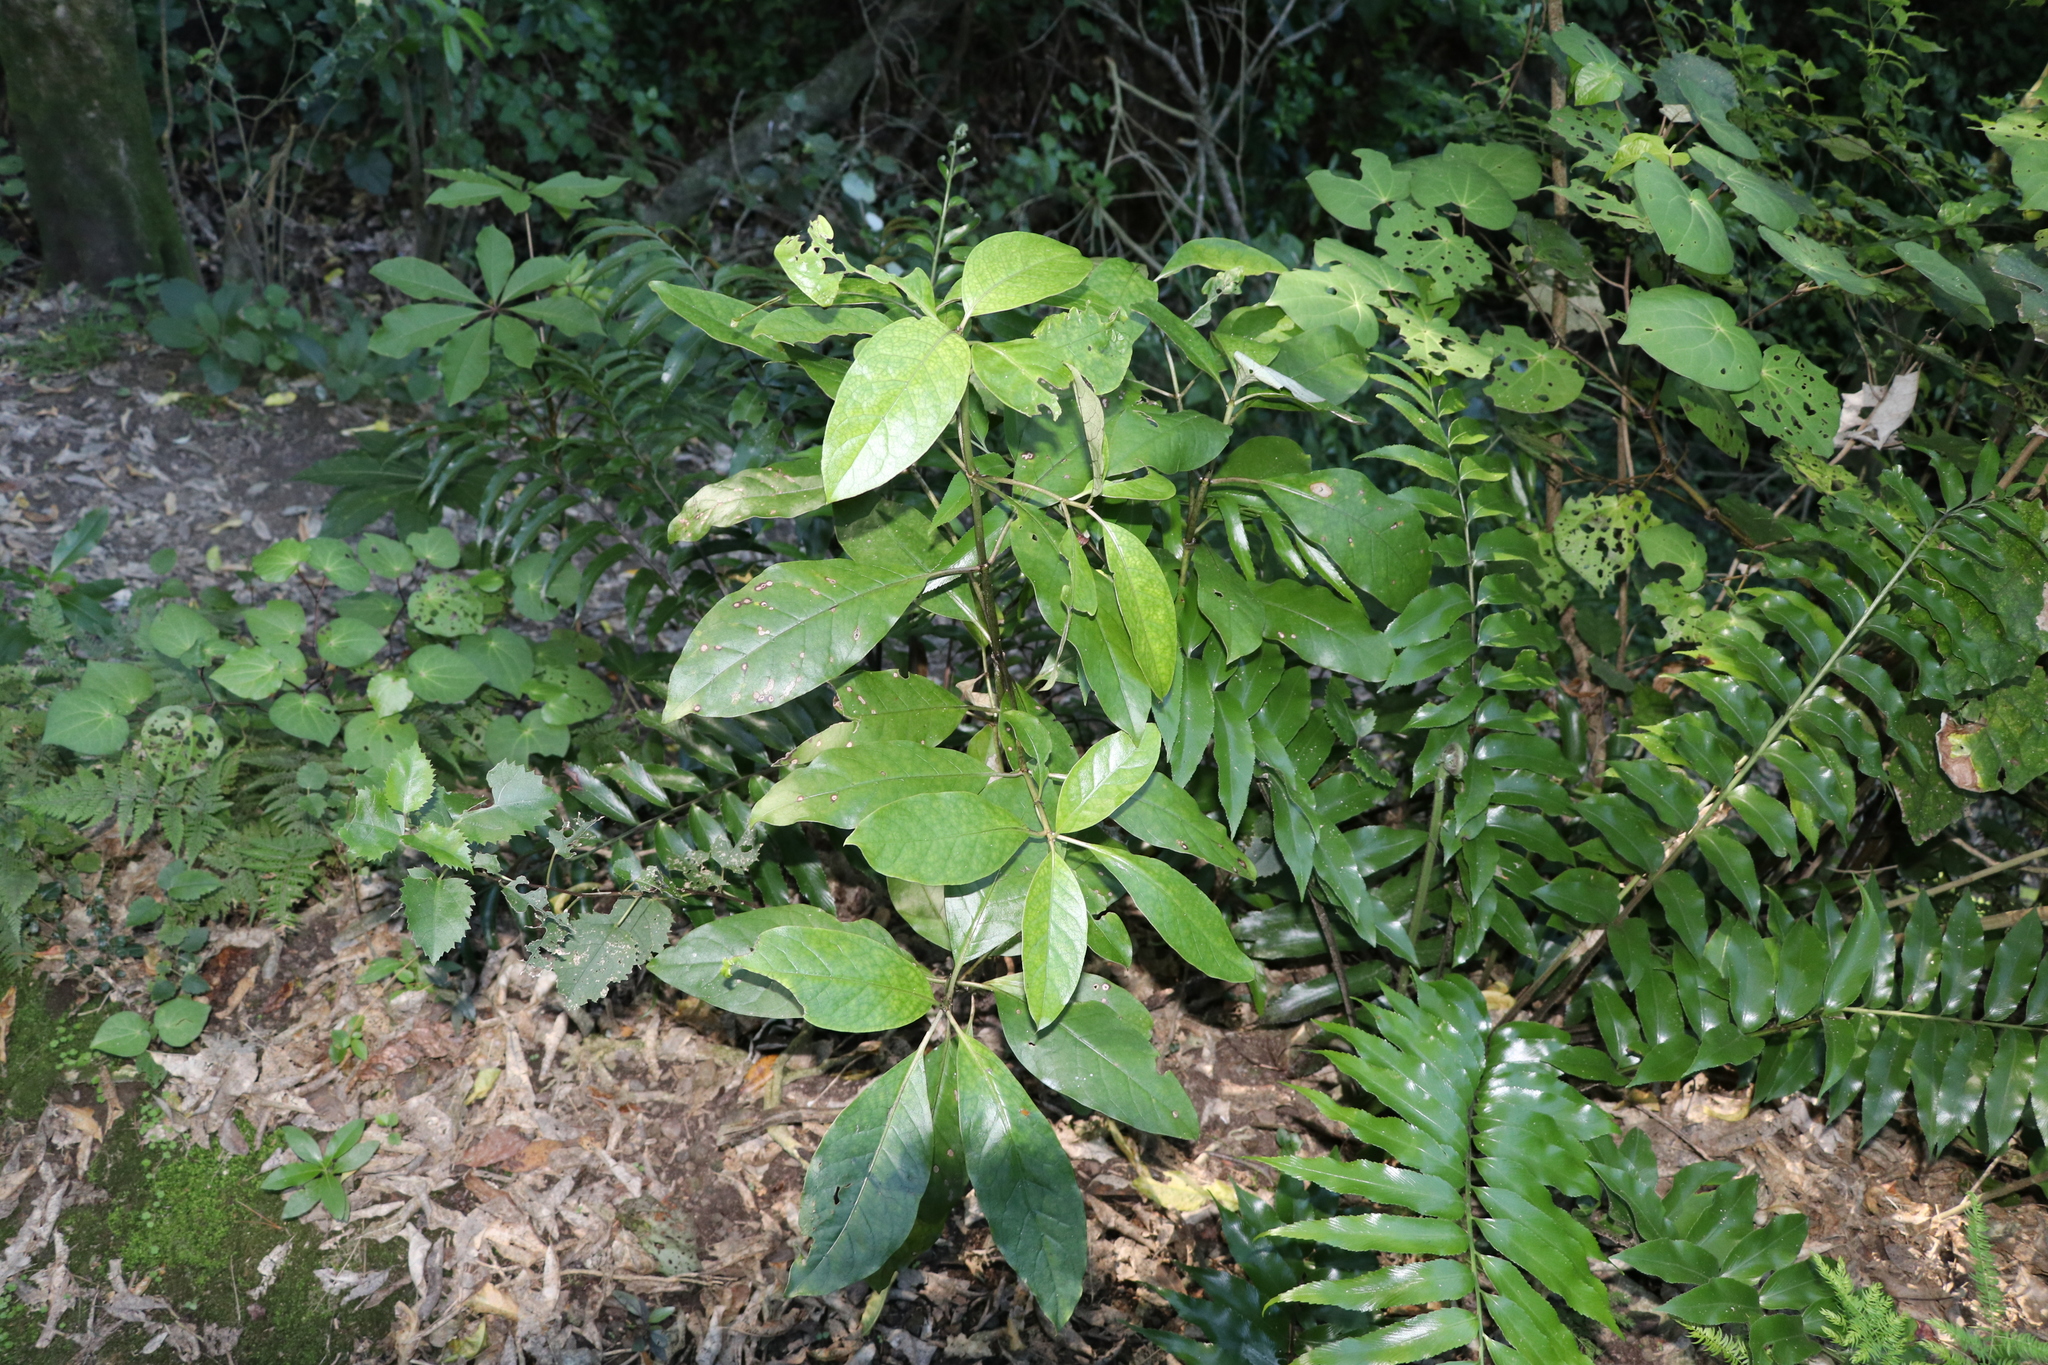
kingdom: Plantae
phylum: Tracheophyta
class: Magnoliopsida
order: Gentianales
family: Rubiaceae
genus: Coprosma
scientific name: Coprosma autumnalis
